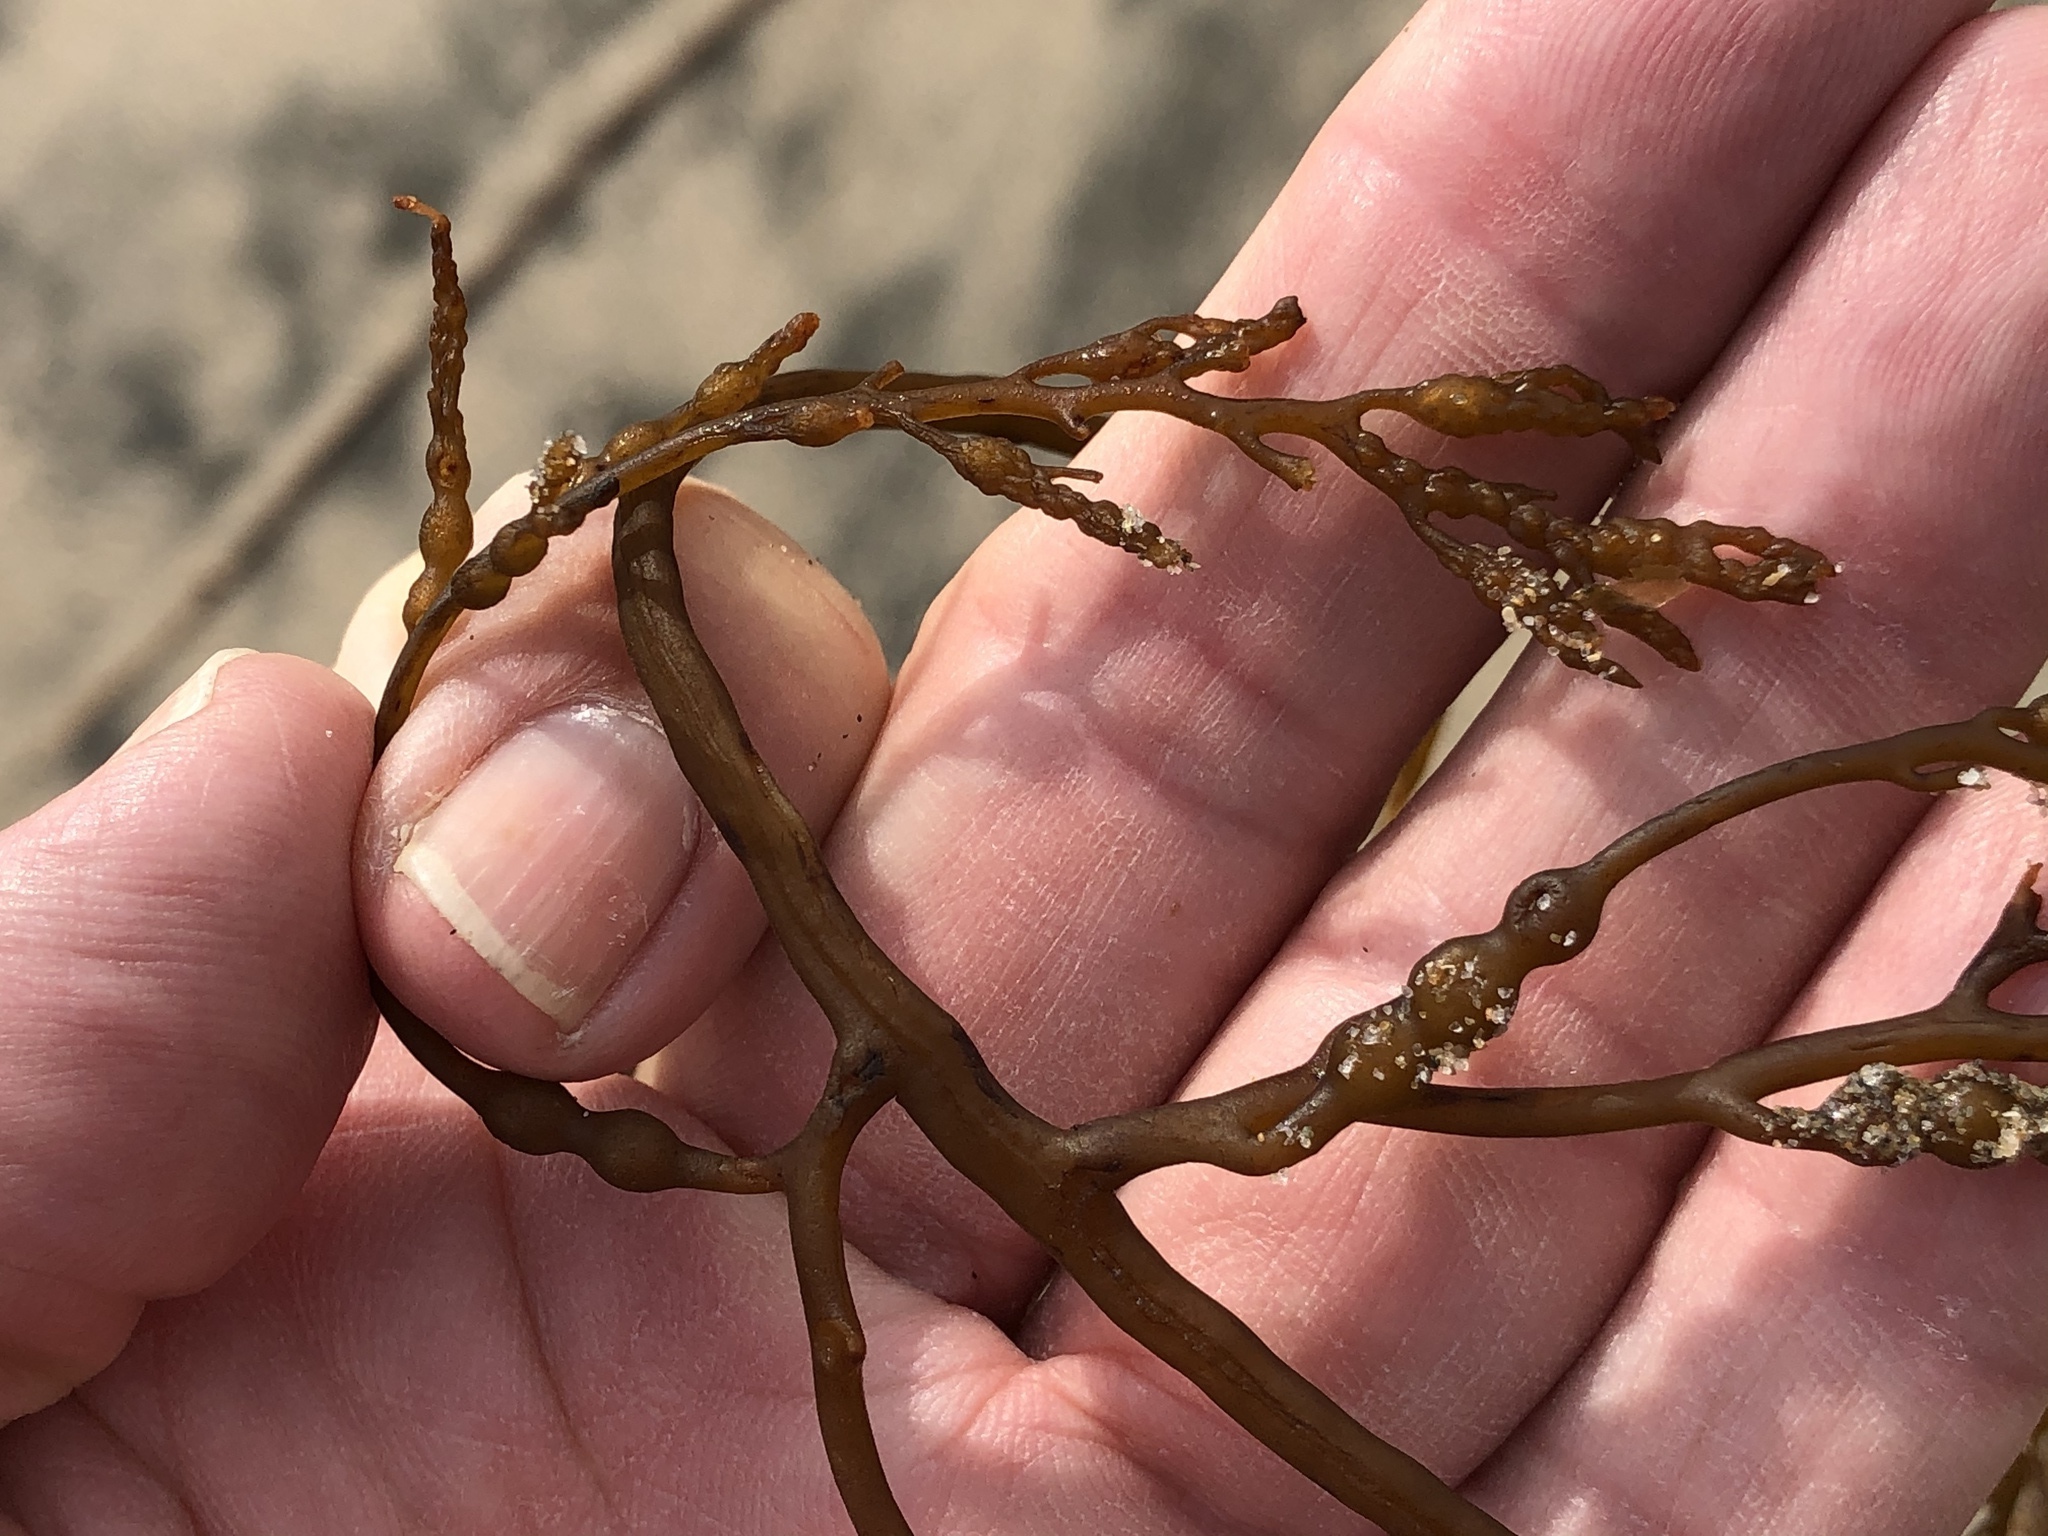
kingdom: Chromista
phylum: Ochrophyta
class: Phaeophyceae
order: Fucales
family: Sargassaceae
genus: Stephanocystis
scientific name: Stephanocystis
